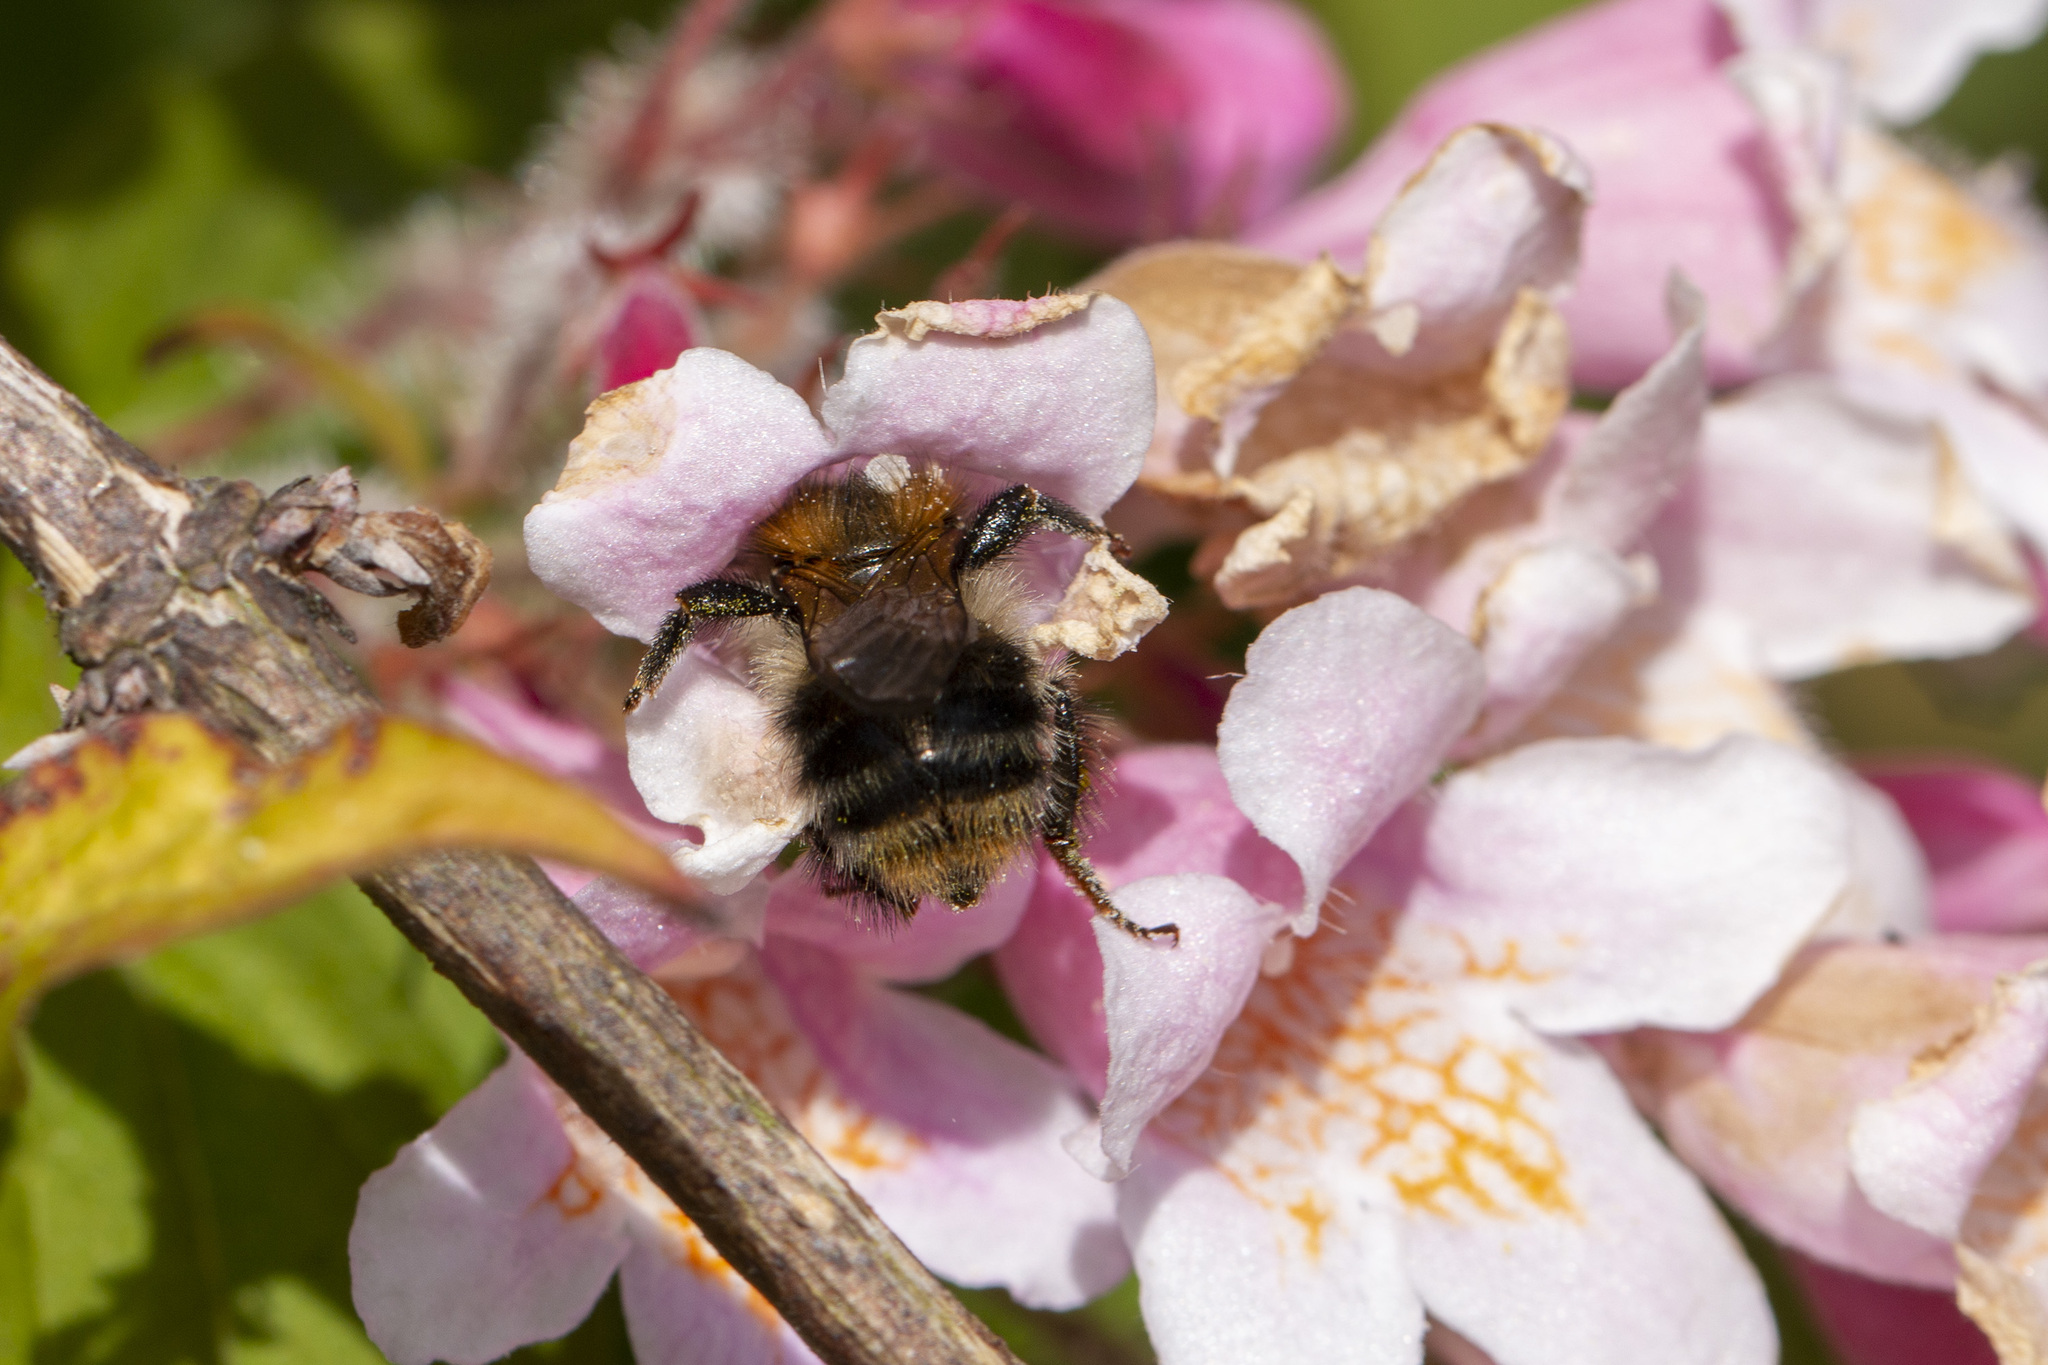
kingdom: Animalia
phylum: Arthropoda
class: Insecta
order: Hymenoptera
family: Apidae
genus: Bombus
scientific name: Bombus pascuorum
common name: Common carder bee
